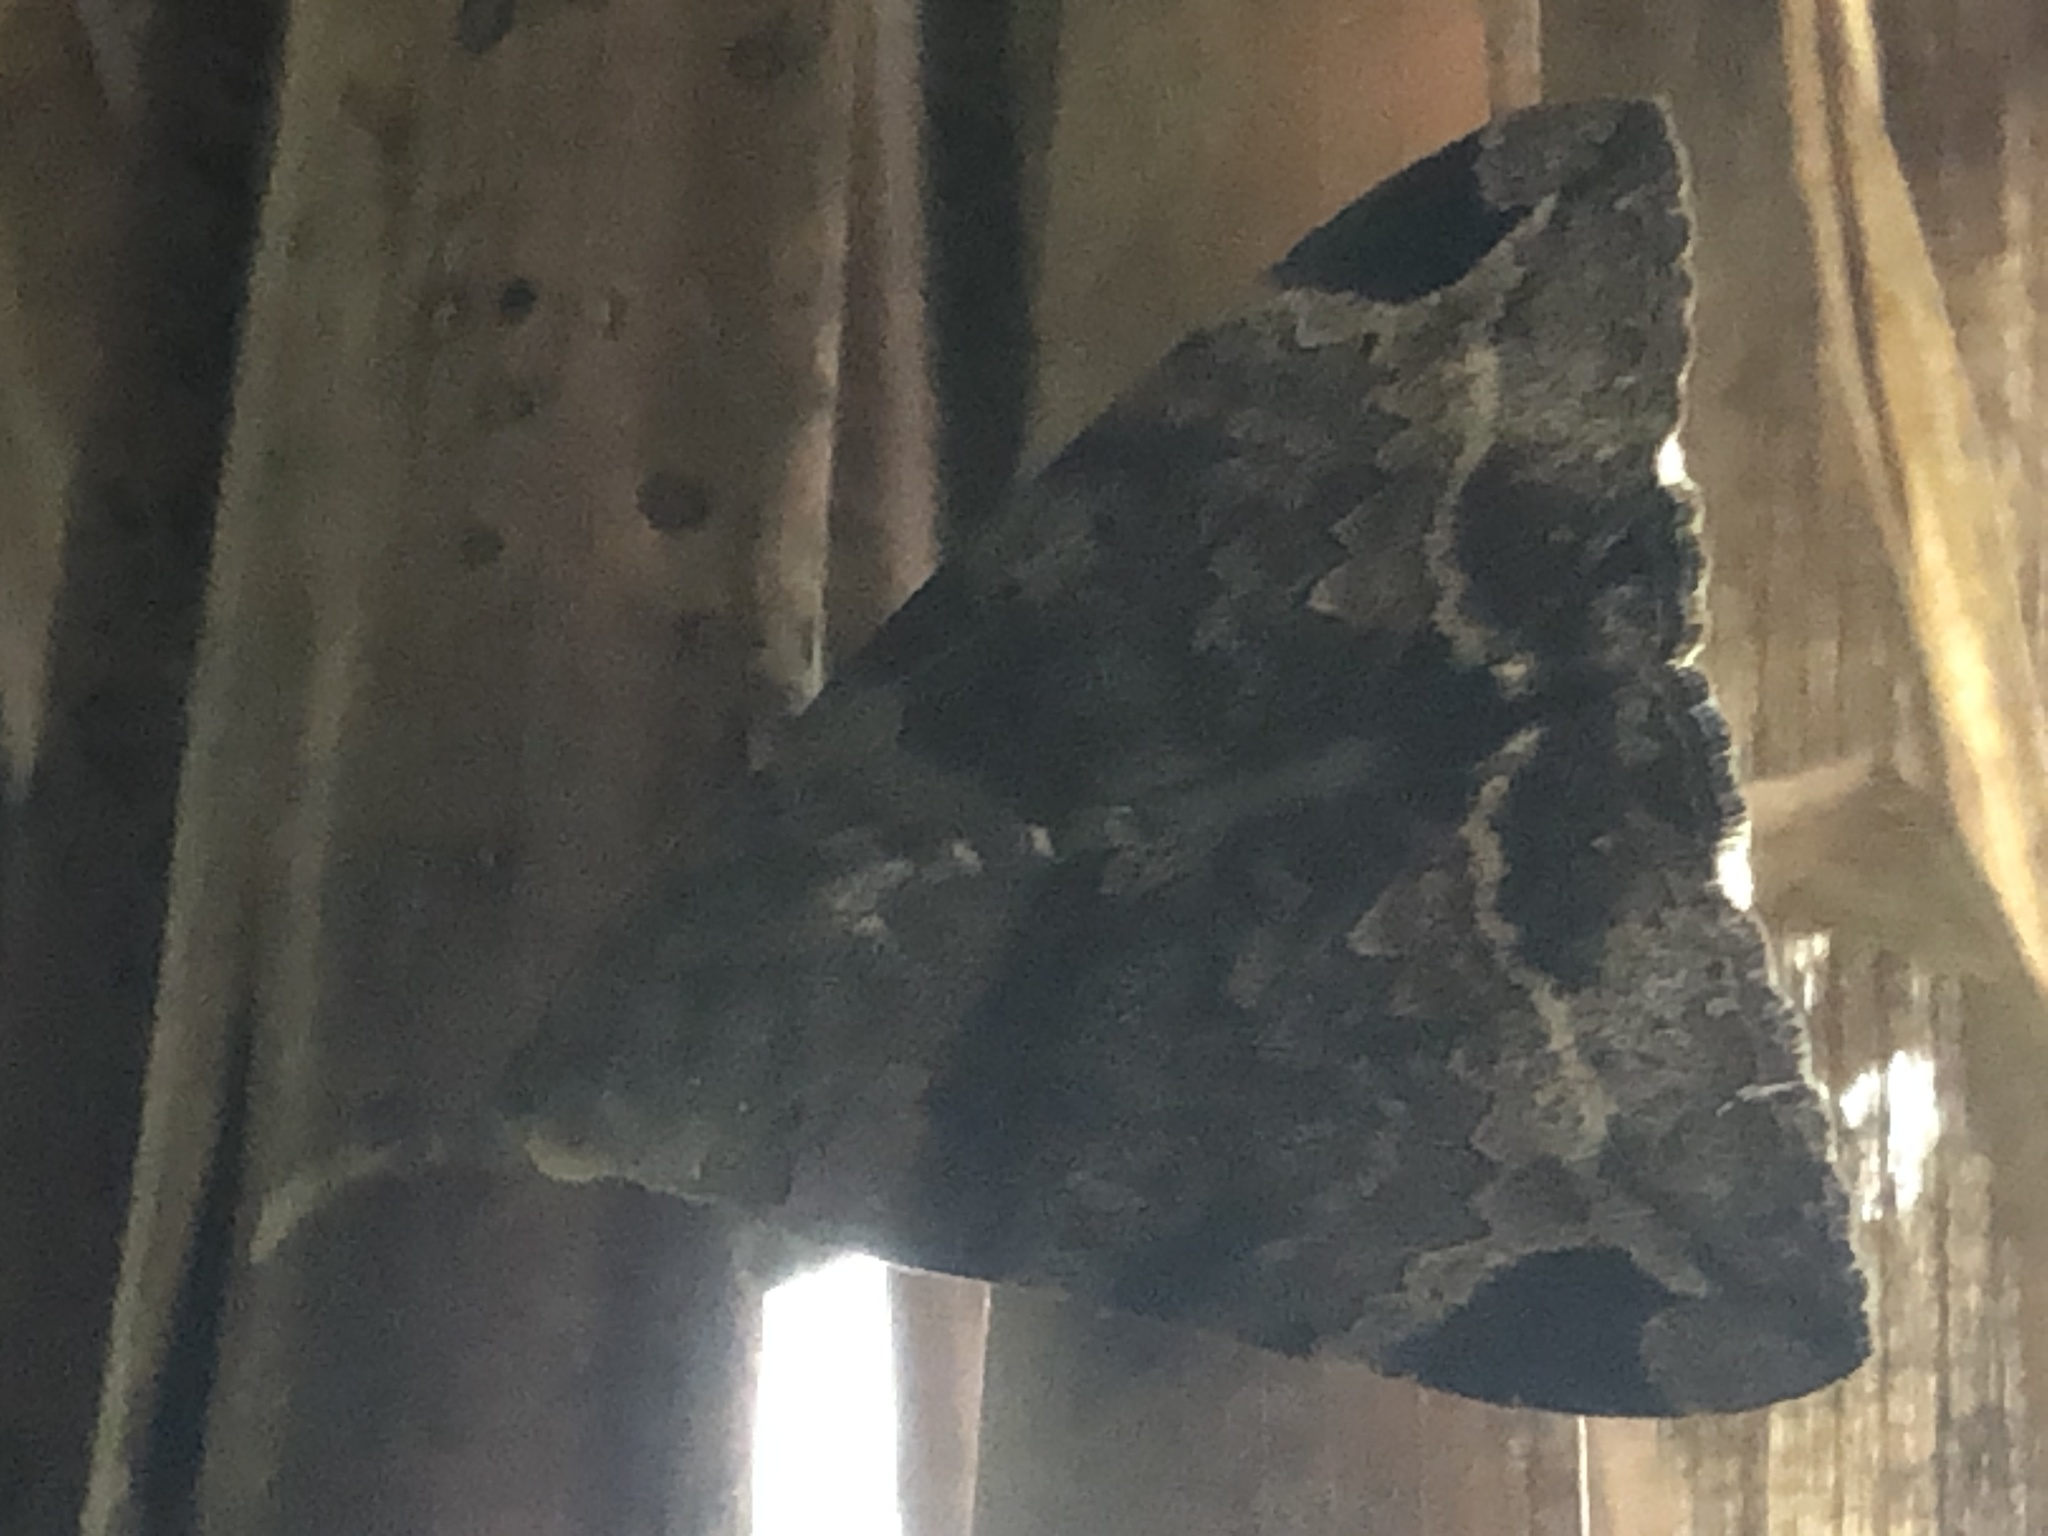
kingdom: Animalia
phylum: Arthropoda
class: Insecta
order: Lepidoptera
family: Erebidae
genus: Achaea
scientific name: Achaea lienardi
